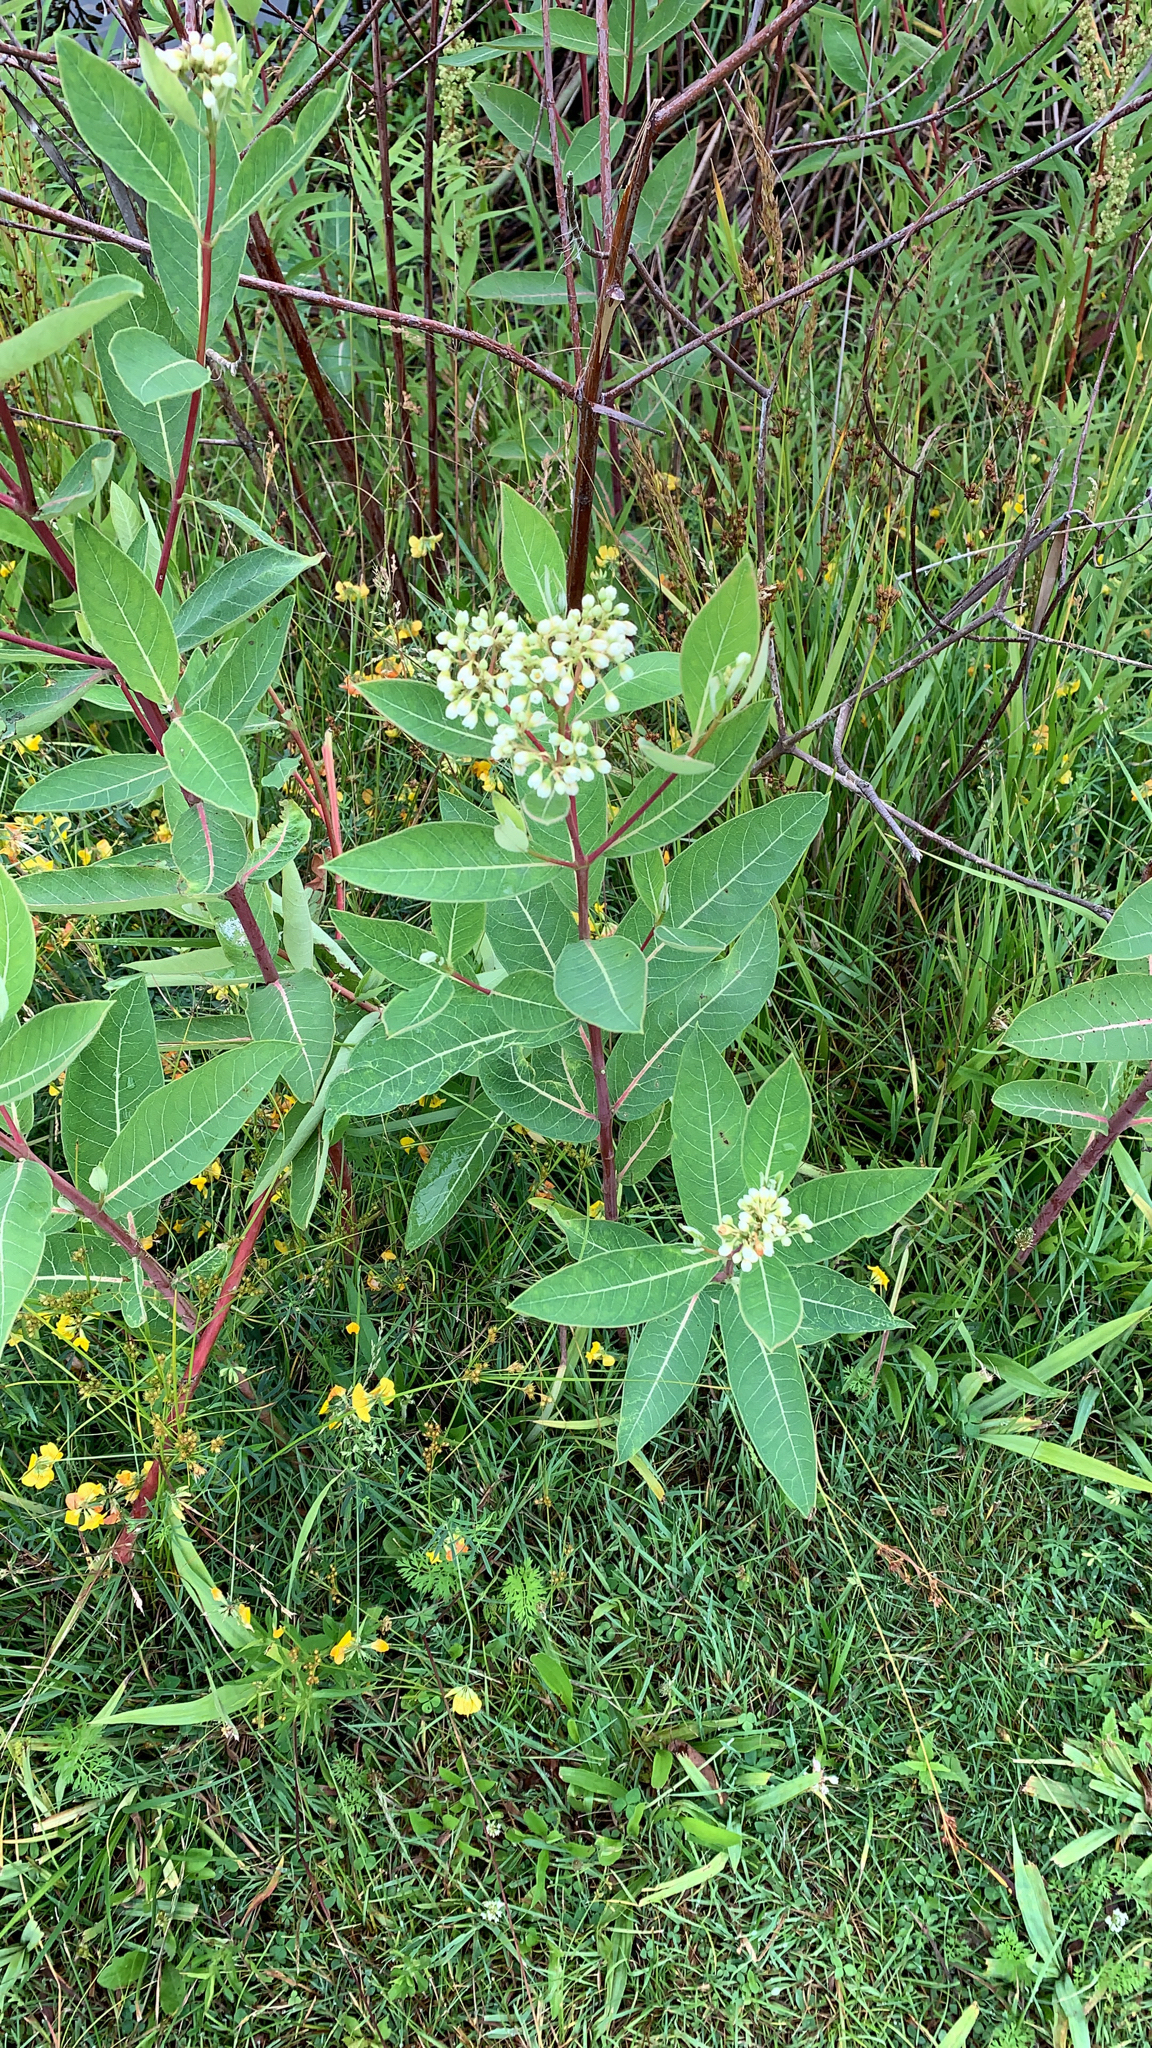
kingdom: Plantae
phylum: Tracheophyta
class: Magnoliopsida
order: Gentianales
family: Apocynaceae
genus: Apocynum
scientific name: Apocynum cannabinum
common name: Hemp dogbane
